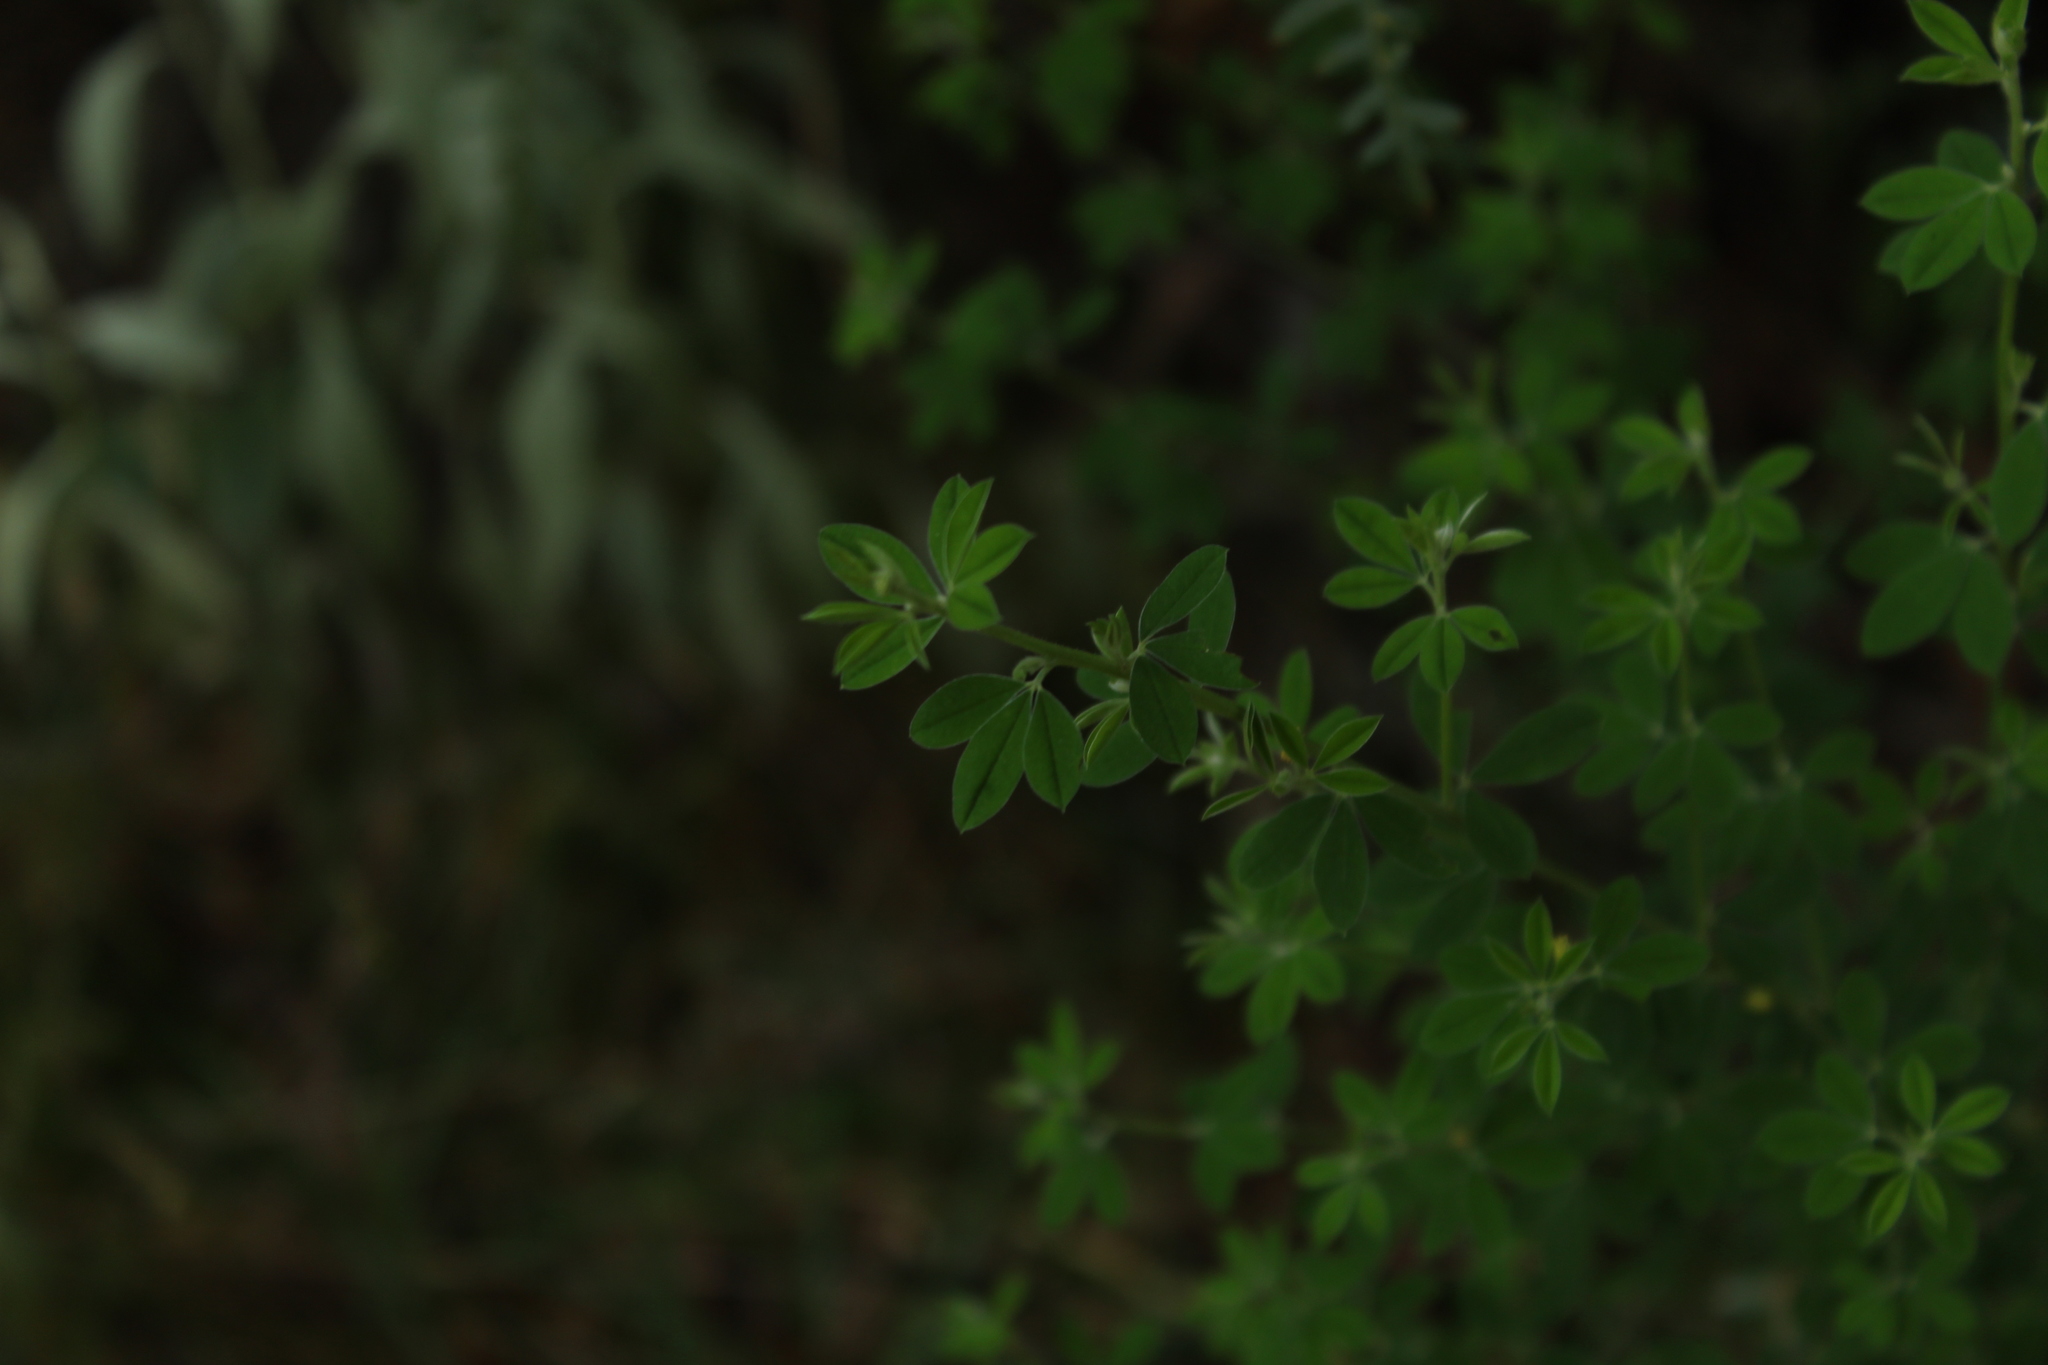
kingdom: Plantae
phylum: Tracheophyta
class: Magnoliopsida
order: Fabales
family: Fabaceae
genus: Genista
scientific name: Genista monspessulana
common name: Montpellier broom
